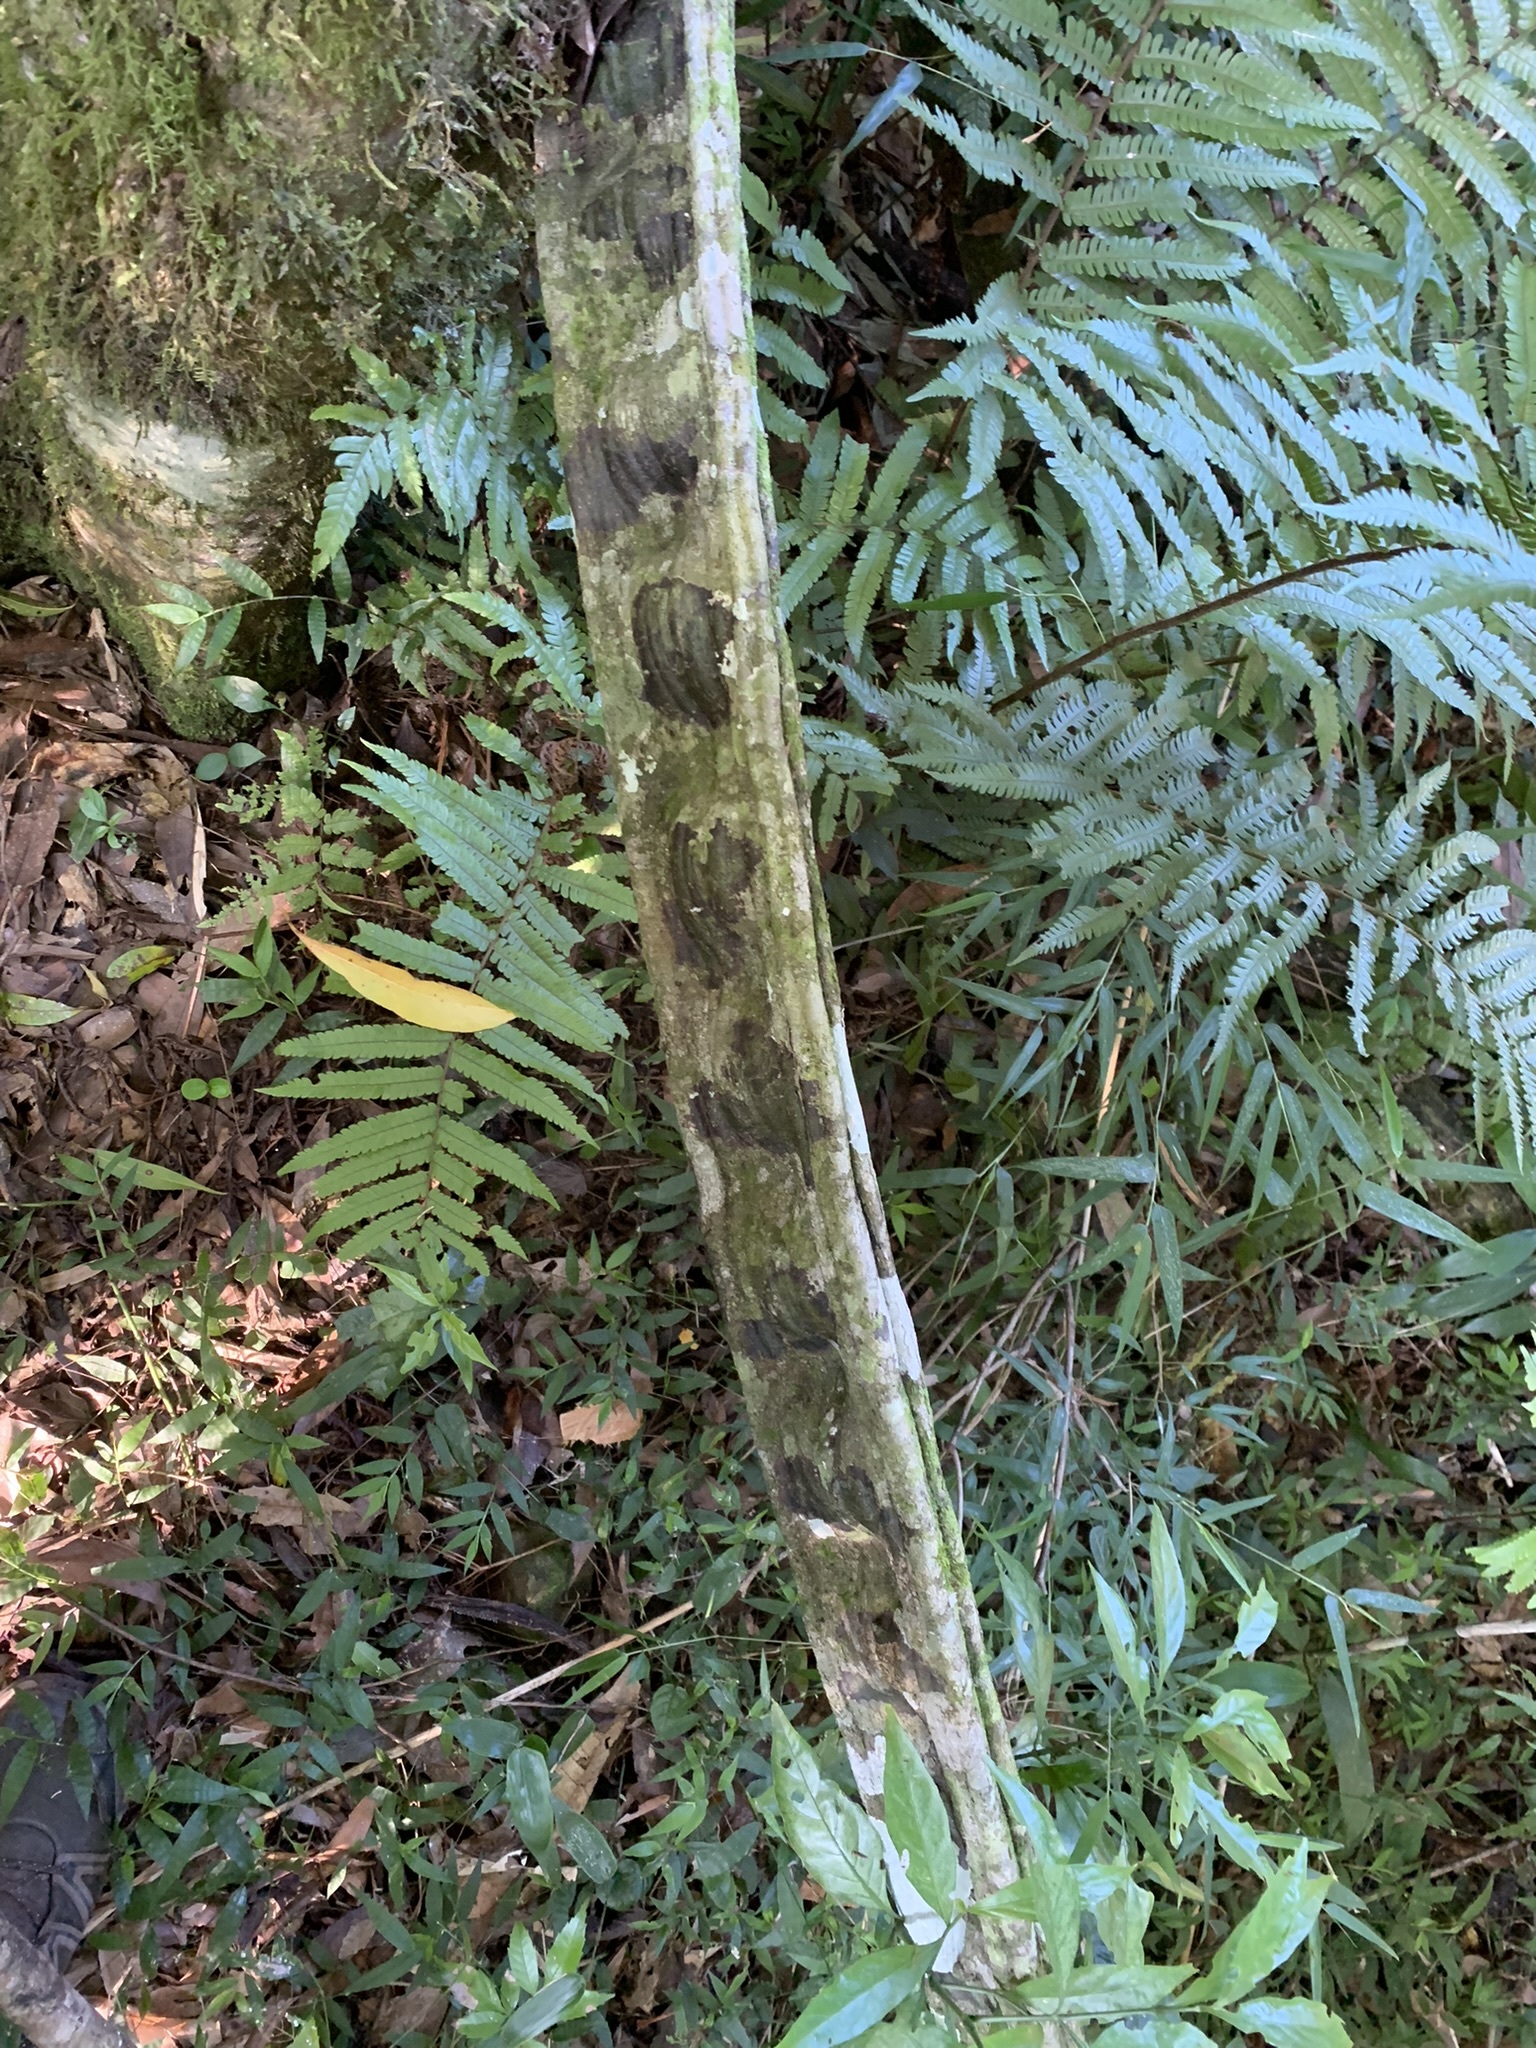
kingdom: Plantae
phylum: Tracheophyta
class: Magnoliopsida
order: Fabales
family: Fabaceae
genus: Schnella
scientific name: Schnella microstachya
